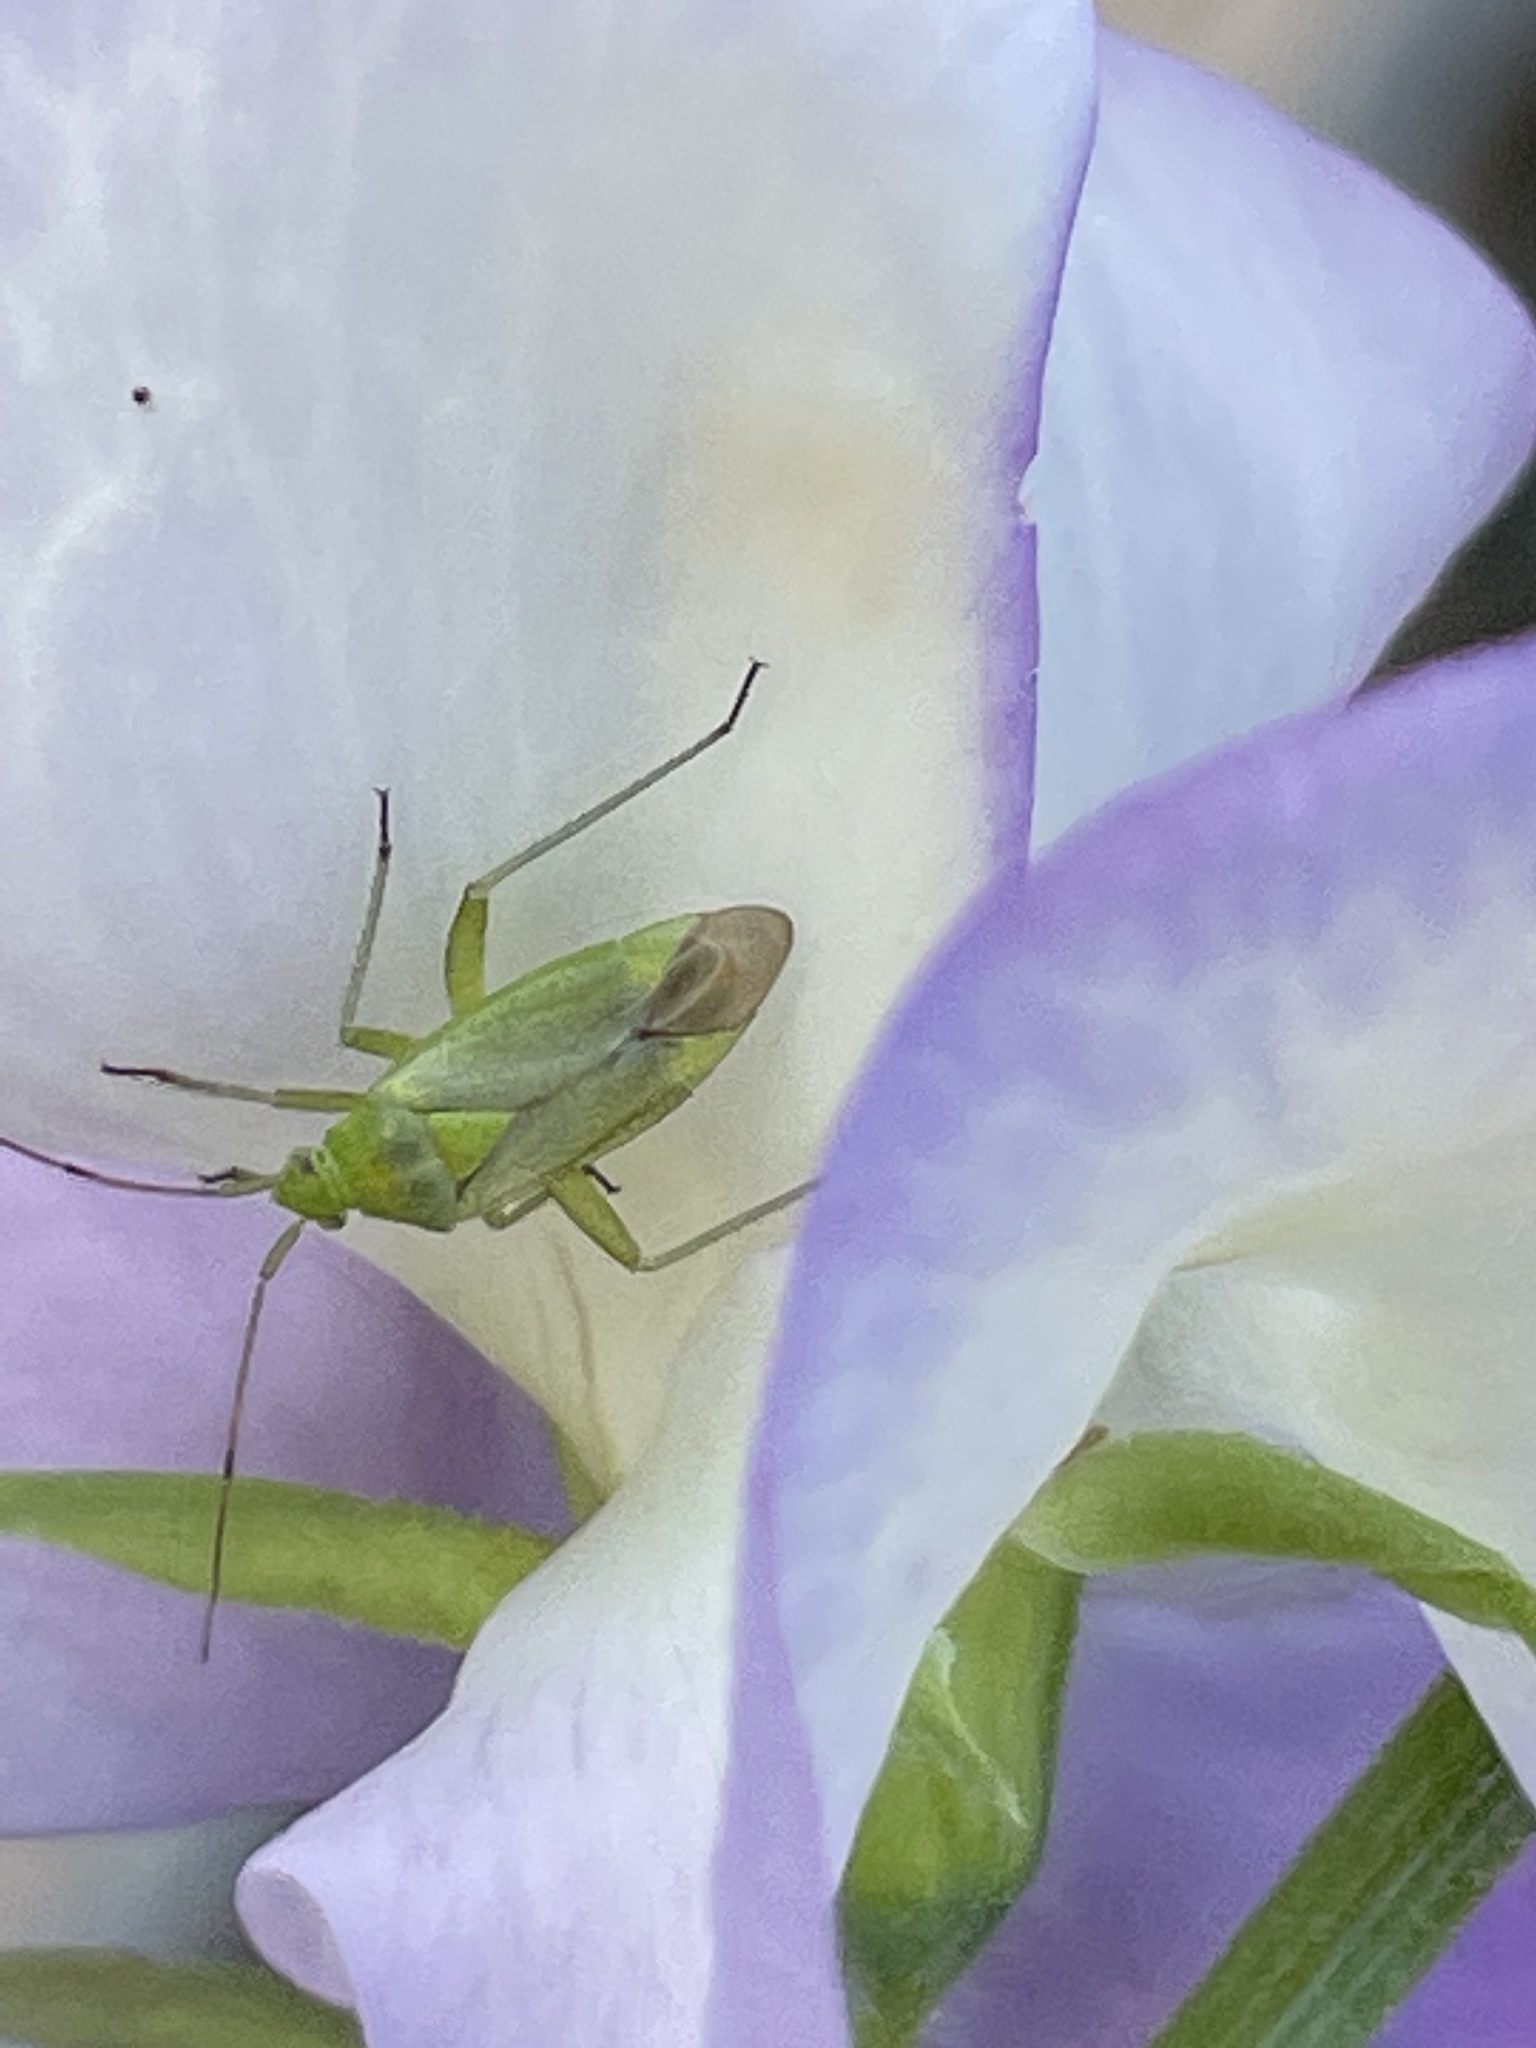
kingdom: Animalia
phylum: Arthropoda
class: Insecta
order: Hemiptera
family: Miridae
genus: Closterotomus
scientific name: Closterotomus norvegicus
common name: Plant bug
